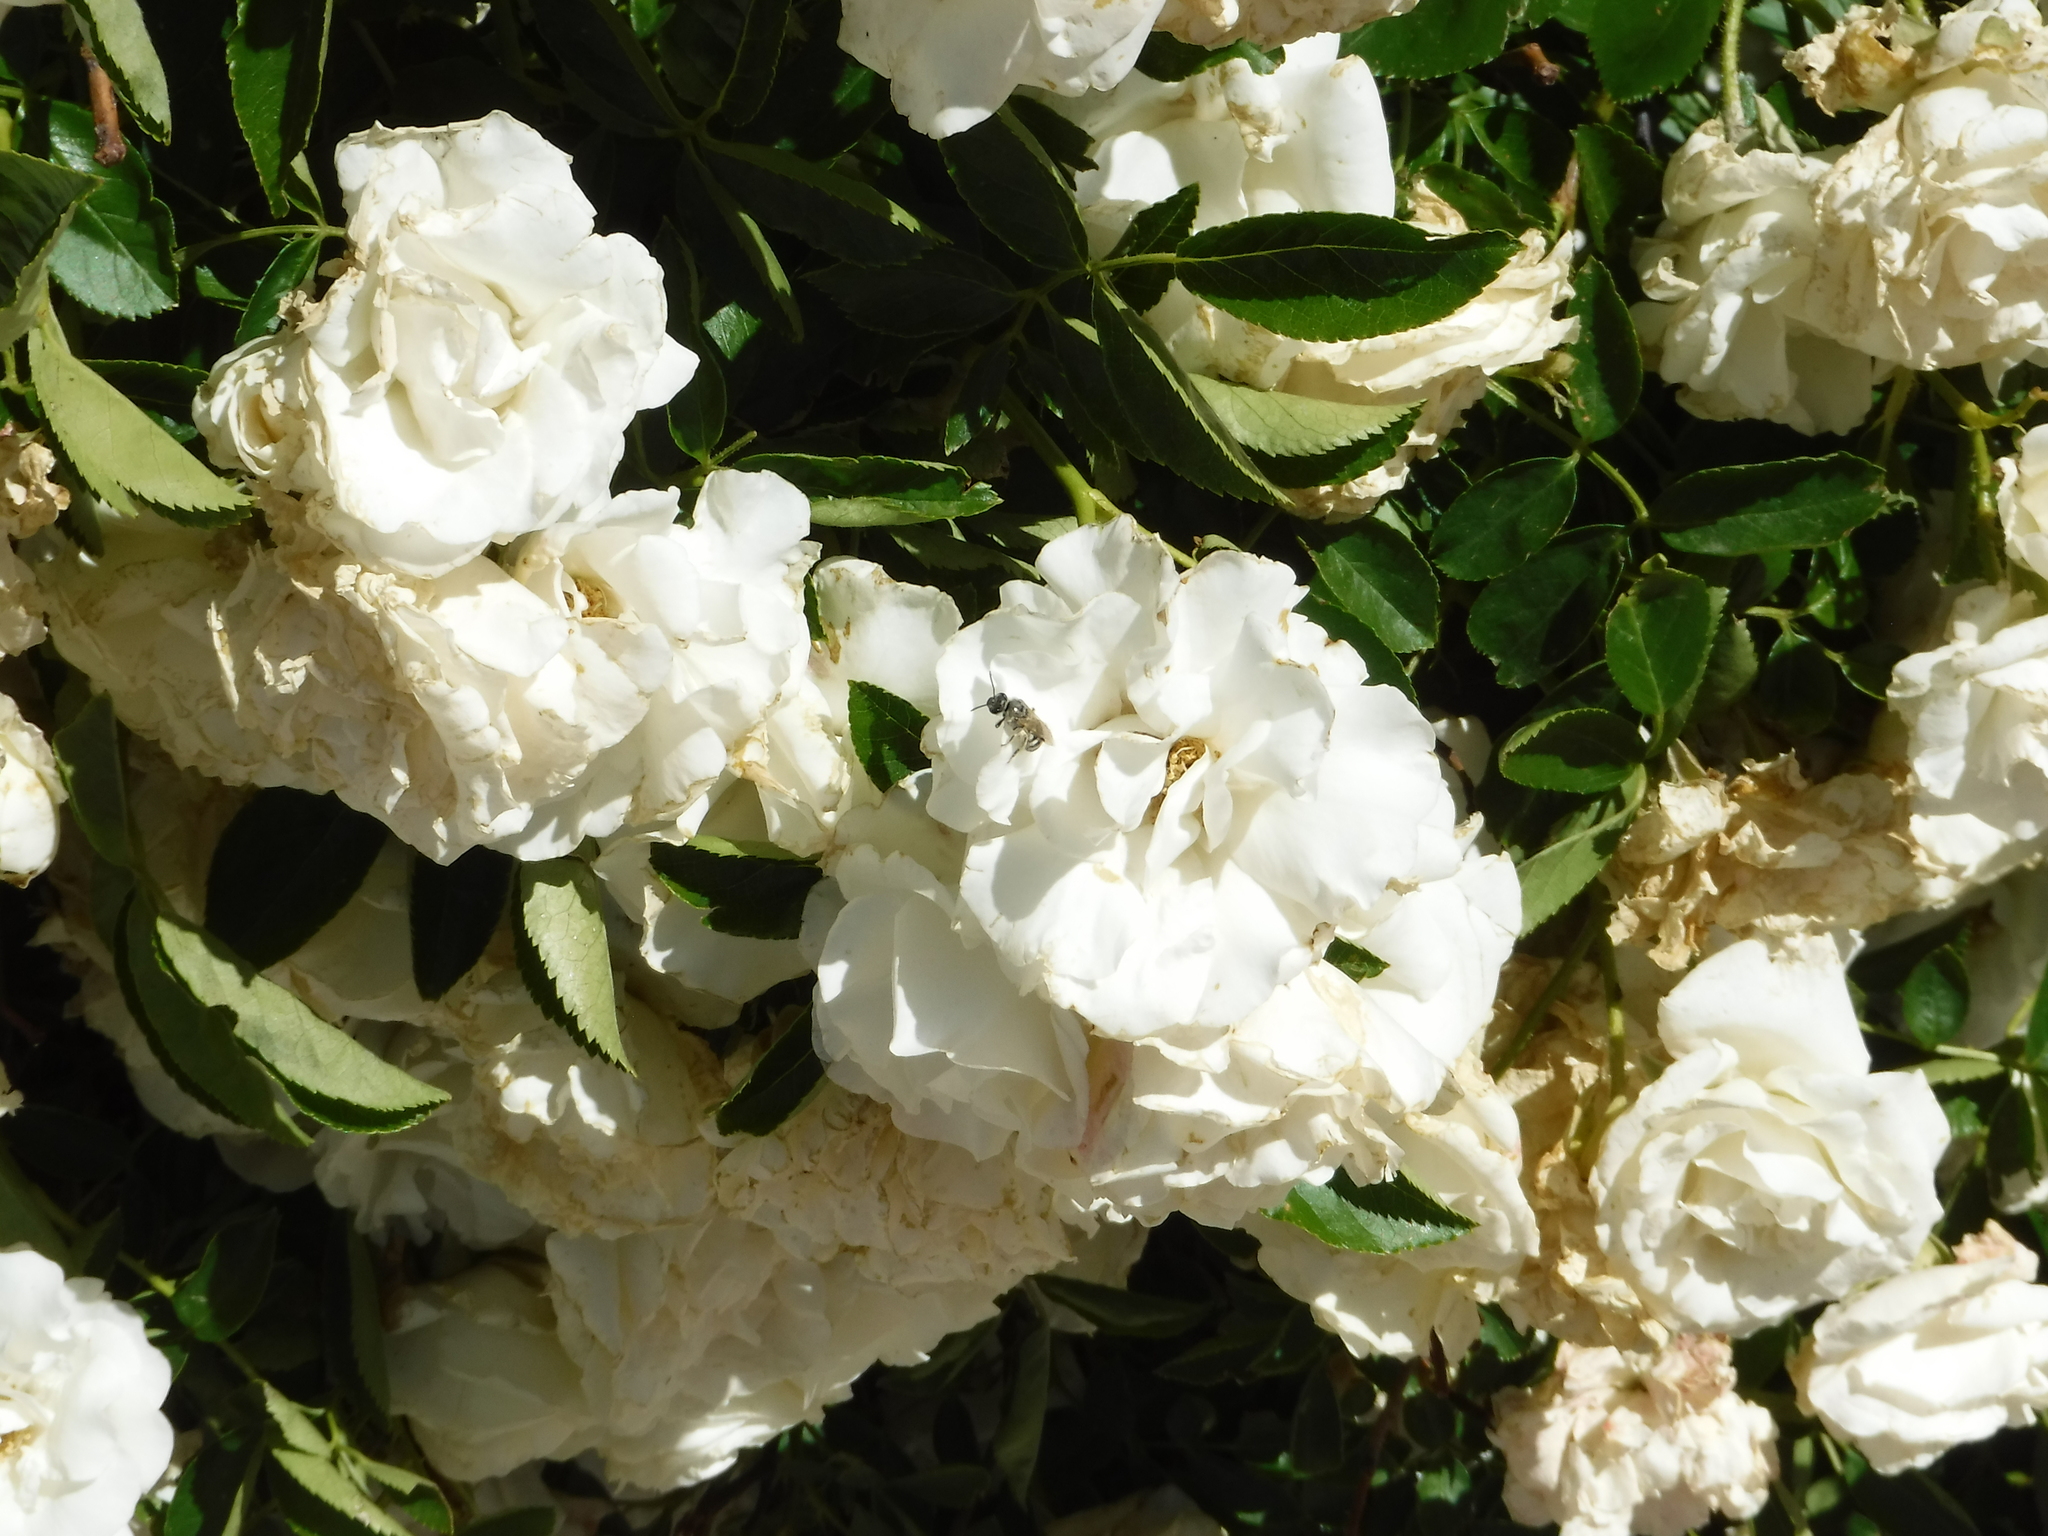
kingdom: Animalia
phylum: Arthropoda
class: Insecta
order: Hymenoptera
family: Halictidae
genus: Lasioglossum
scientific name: Lasioglossum sisymbrii
